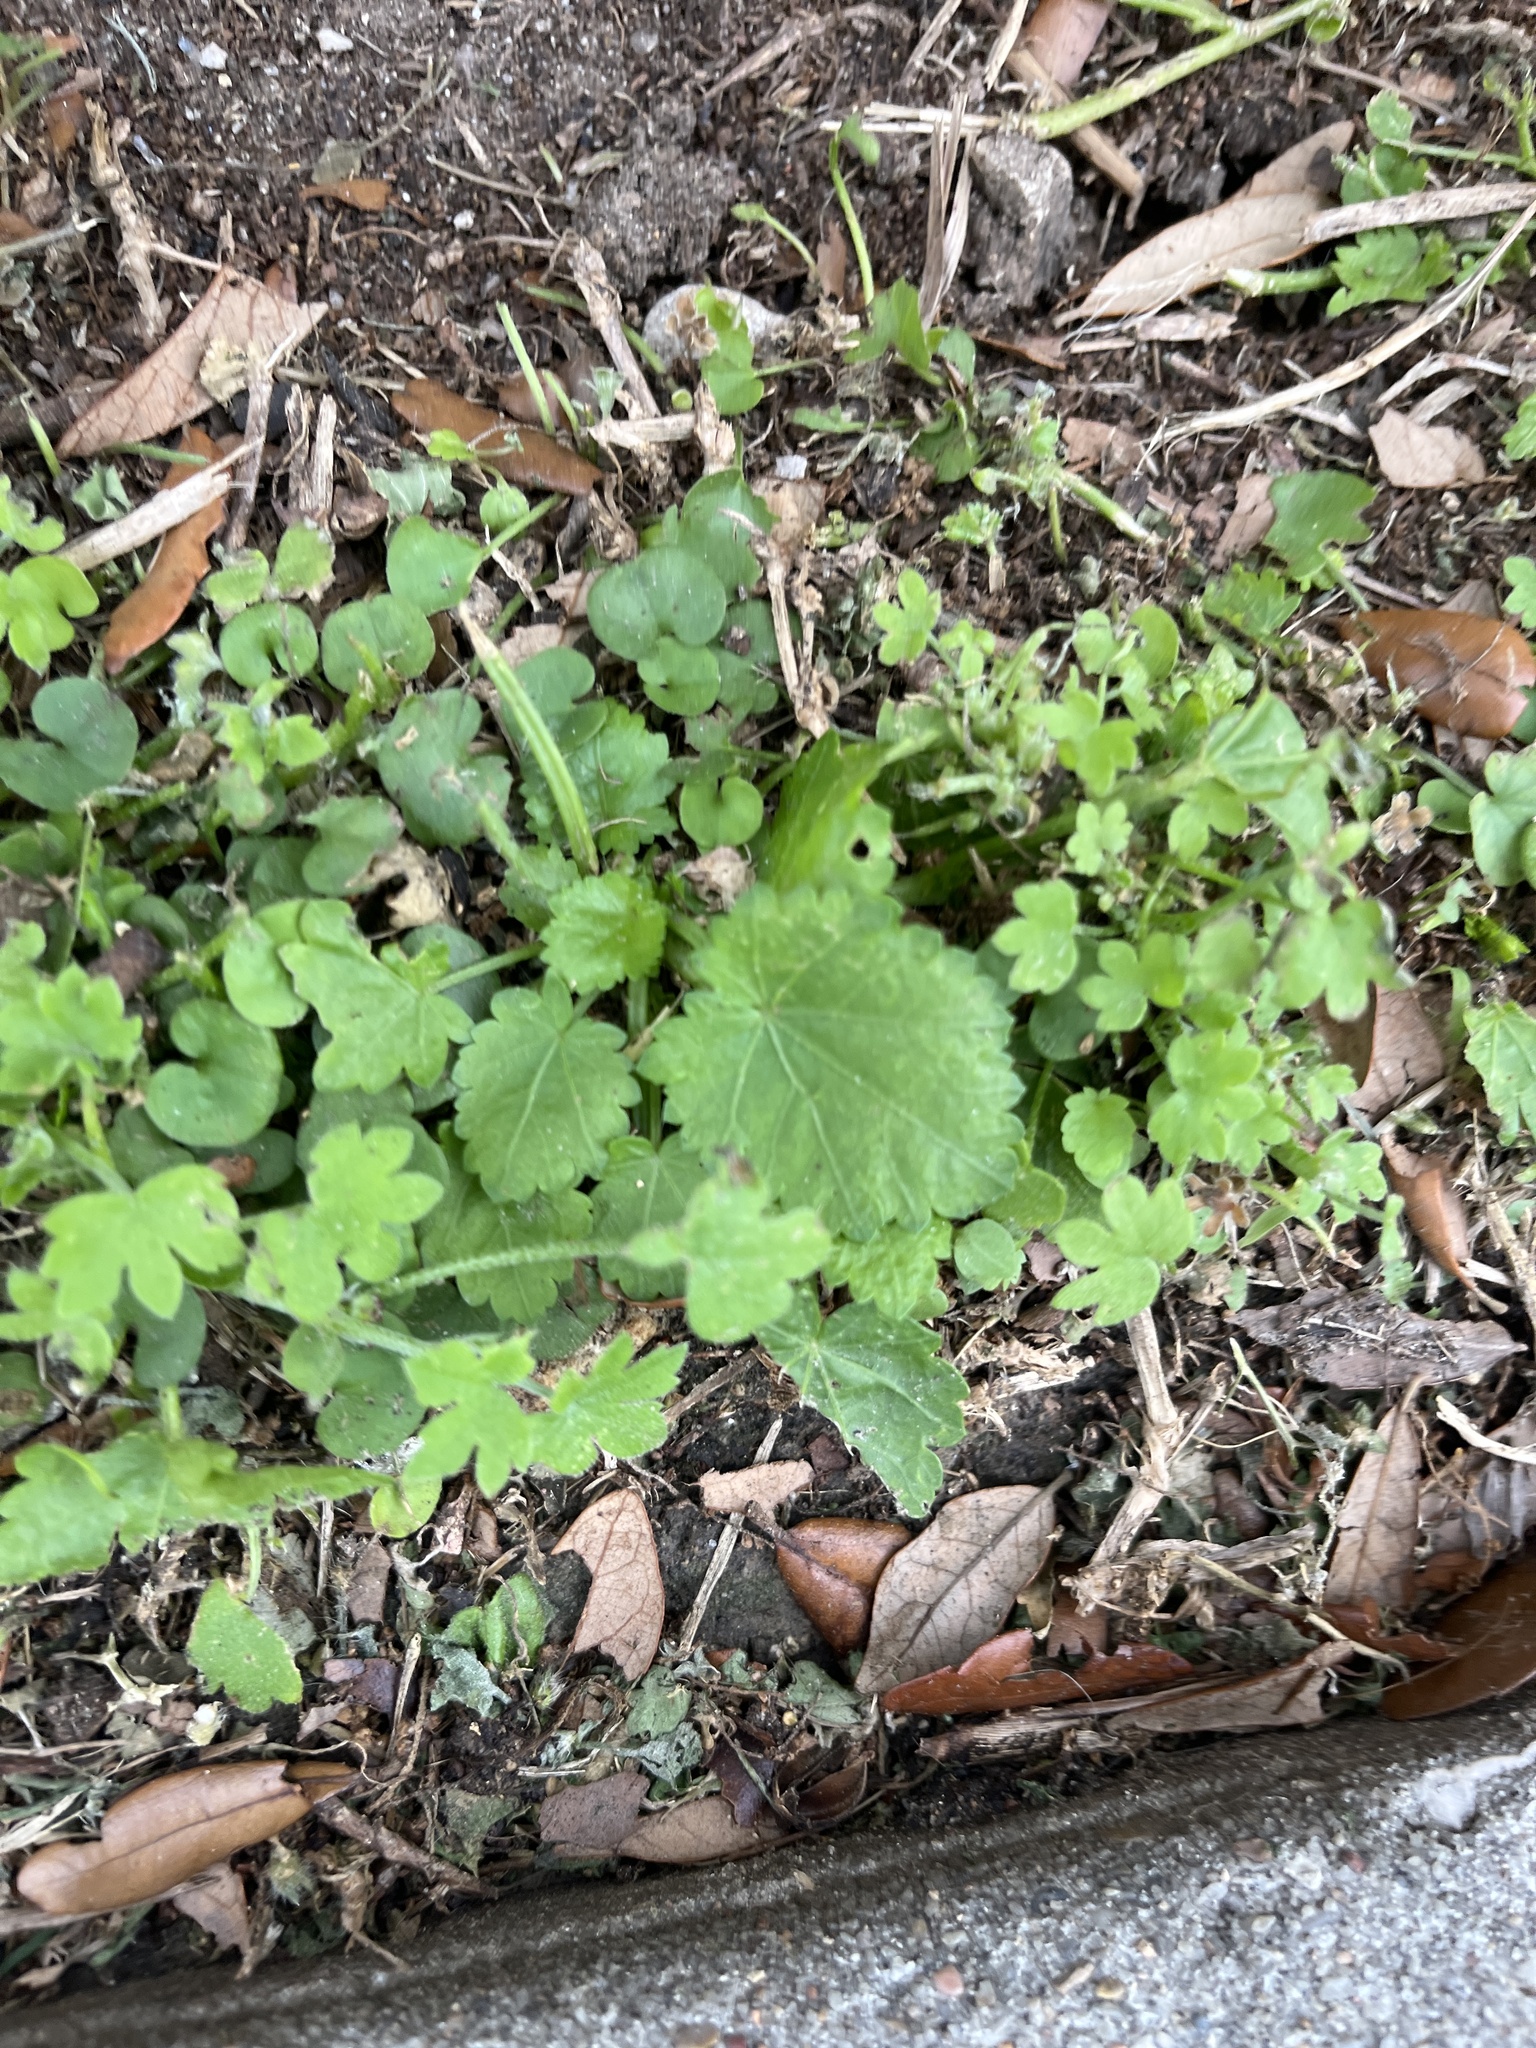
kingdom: Plantae
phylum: Tracheophyta
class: Magnoliopsida
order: Malvales
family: Malvaceae
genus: Modiola
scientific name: Modiola caroliniana
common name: Carolina bristlemallow
